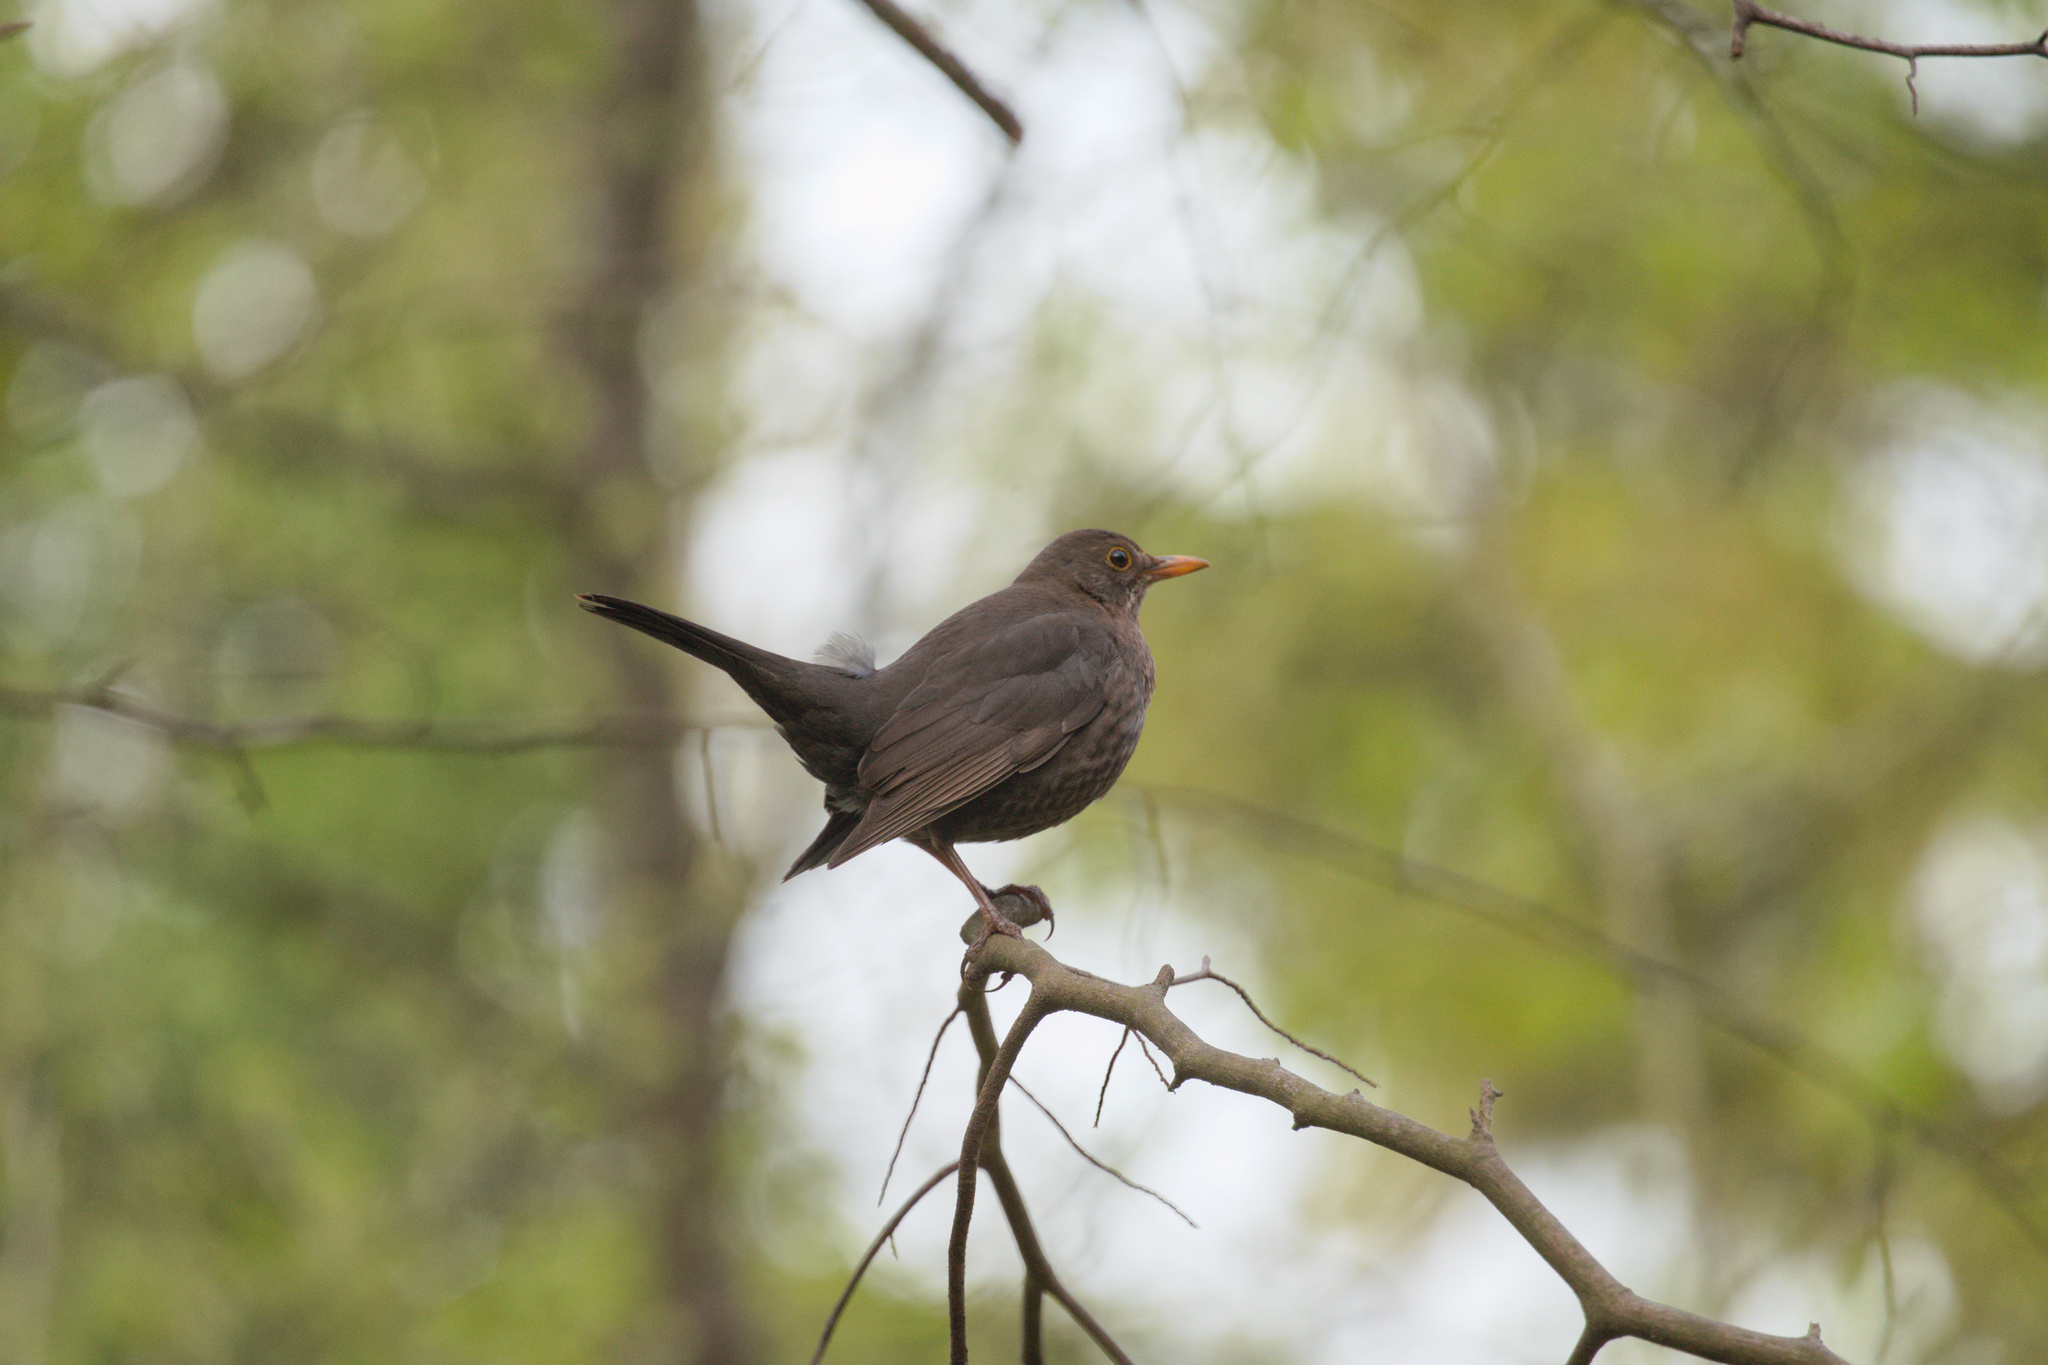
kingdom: Animalia
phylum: Chordata
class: Aves
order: Passeriformes
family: Turdidae
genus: Turdus
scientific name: Turdus merula
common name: Common blackbird
